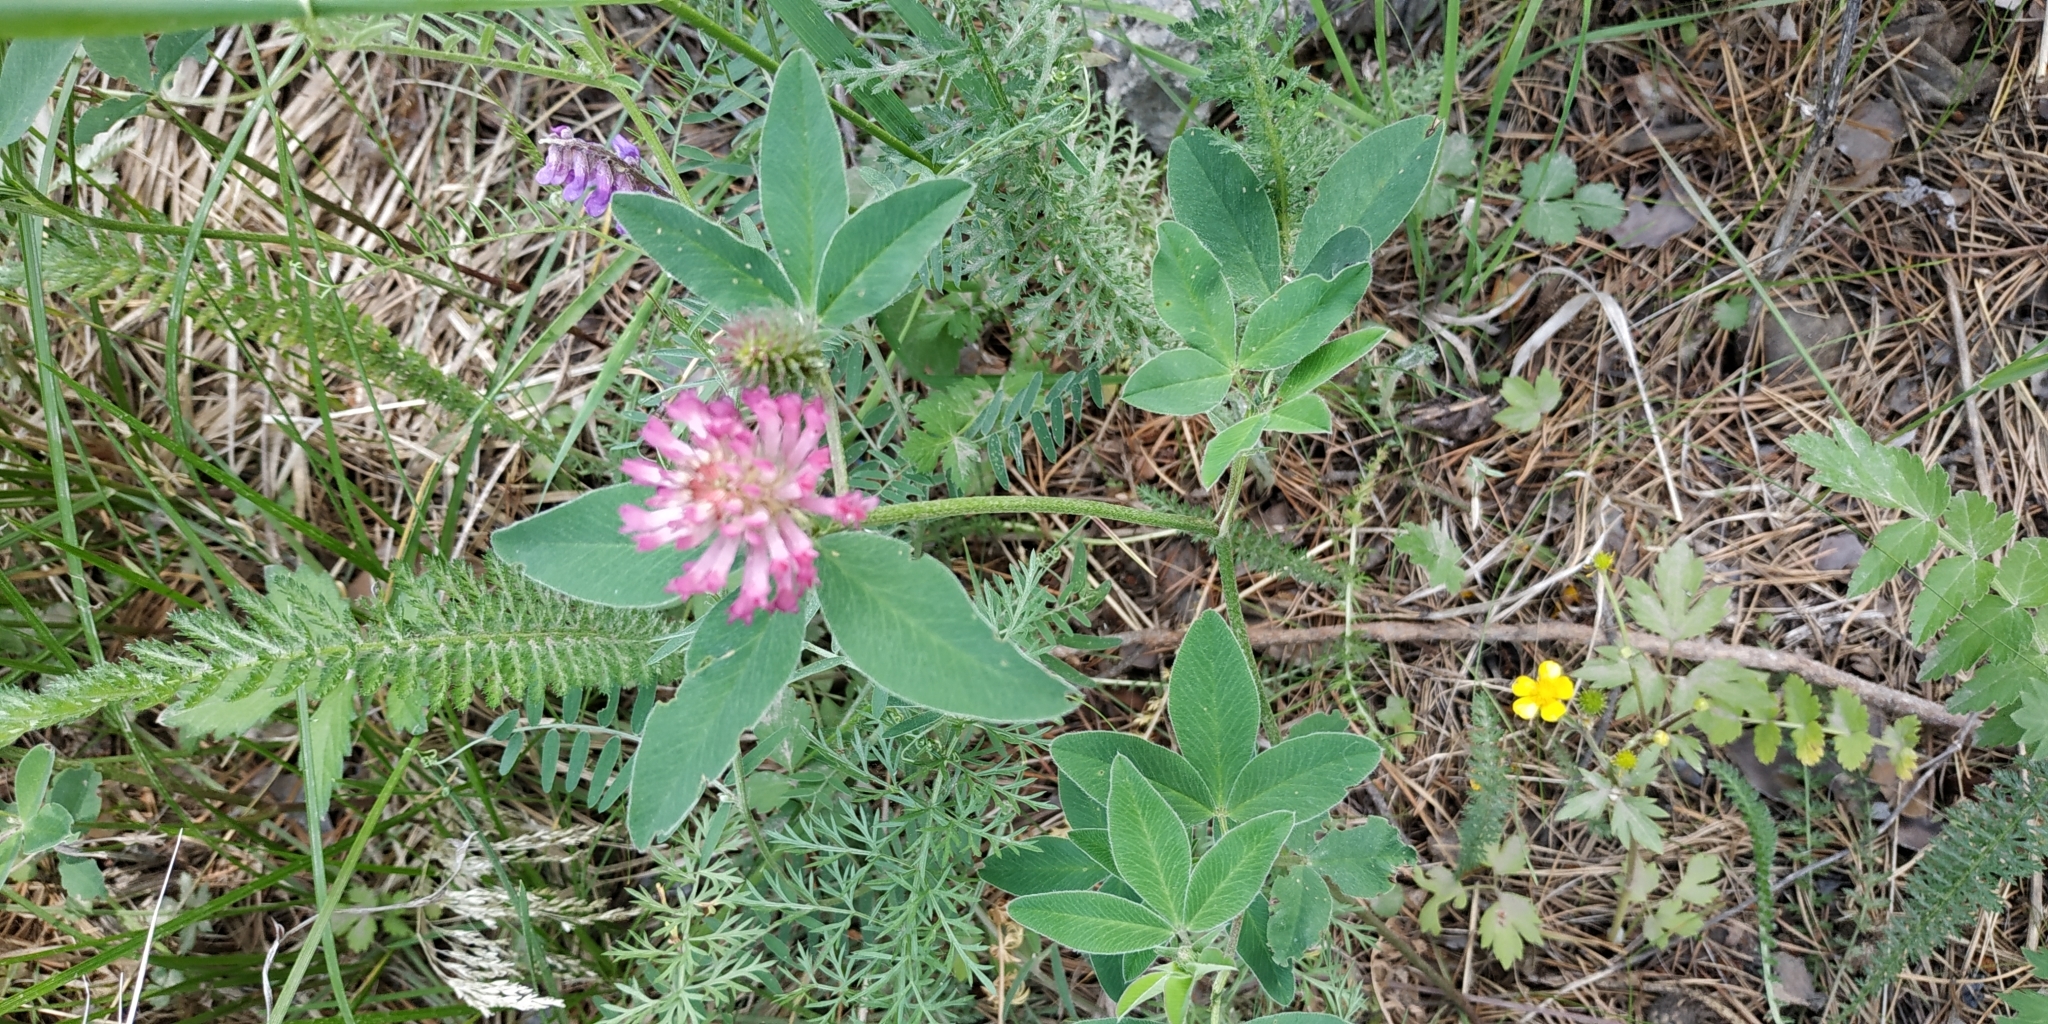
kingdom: Plantae
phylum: Tracheophyta
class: Magnoliopsida
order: Fabales
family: Fabaceae
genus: Trifolium
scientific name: Trifolium medium
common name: Zigzag clover
